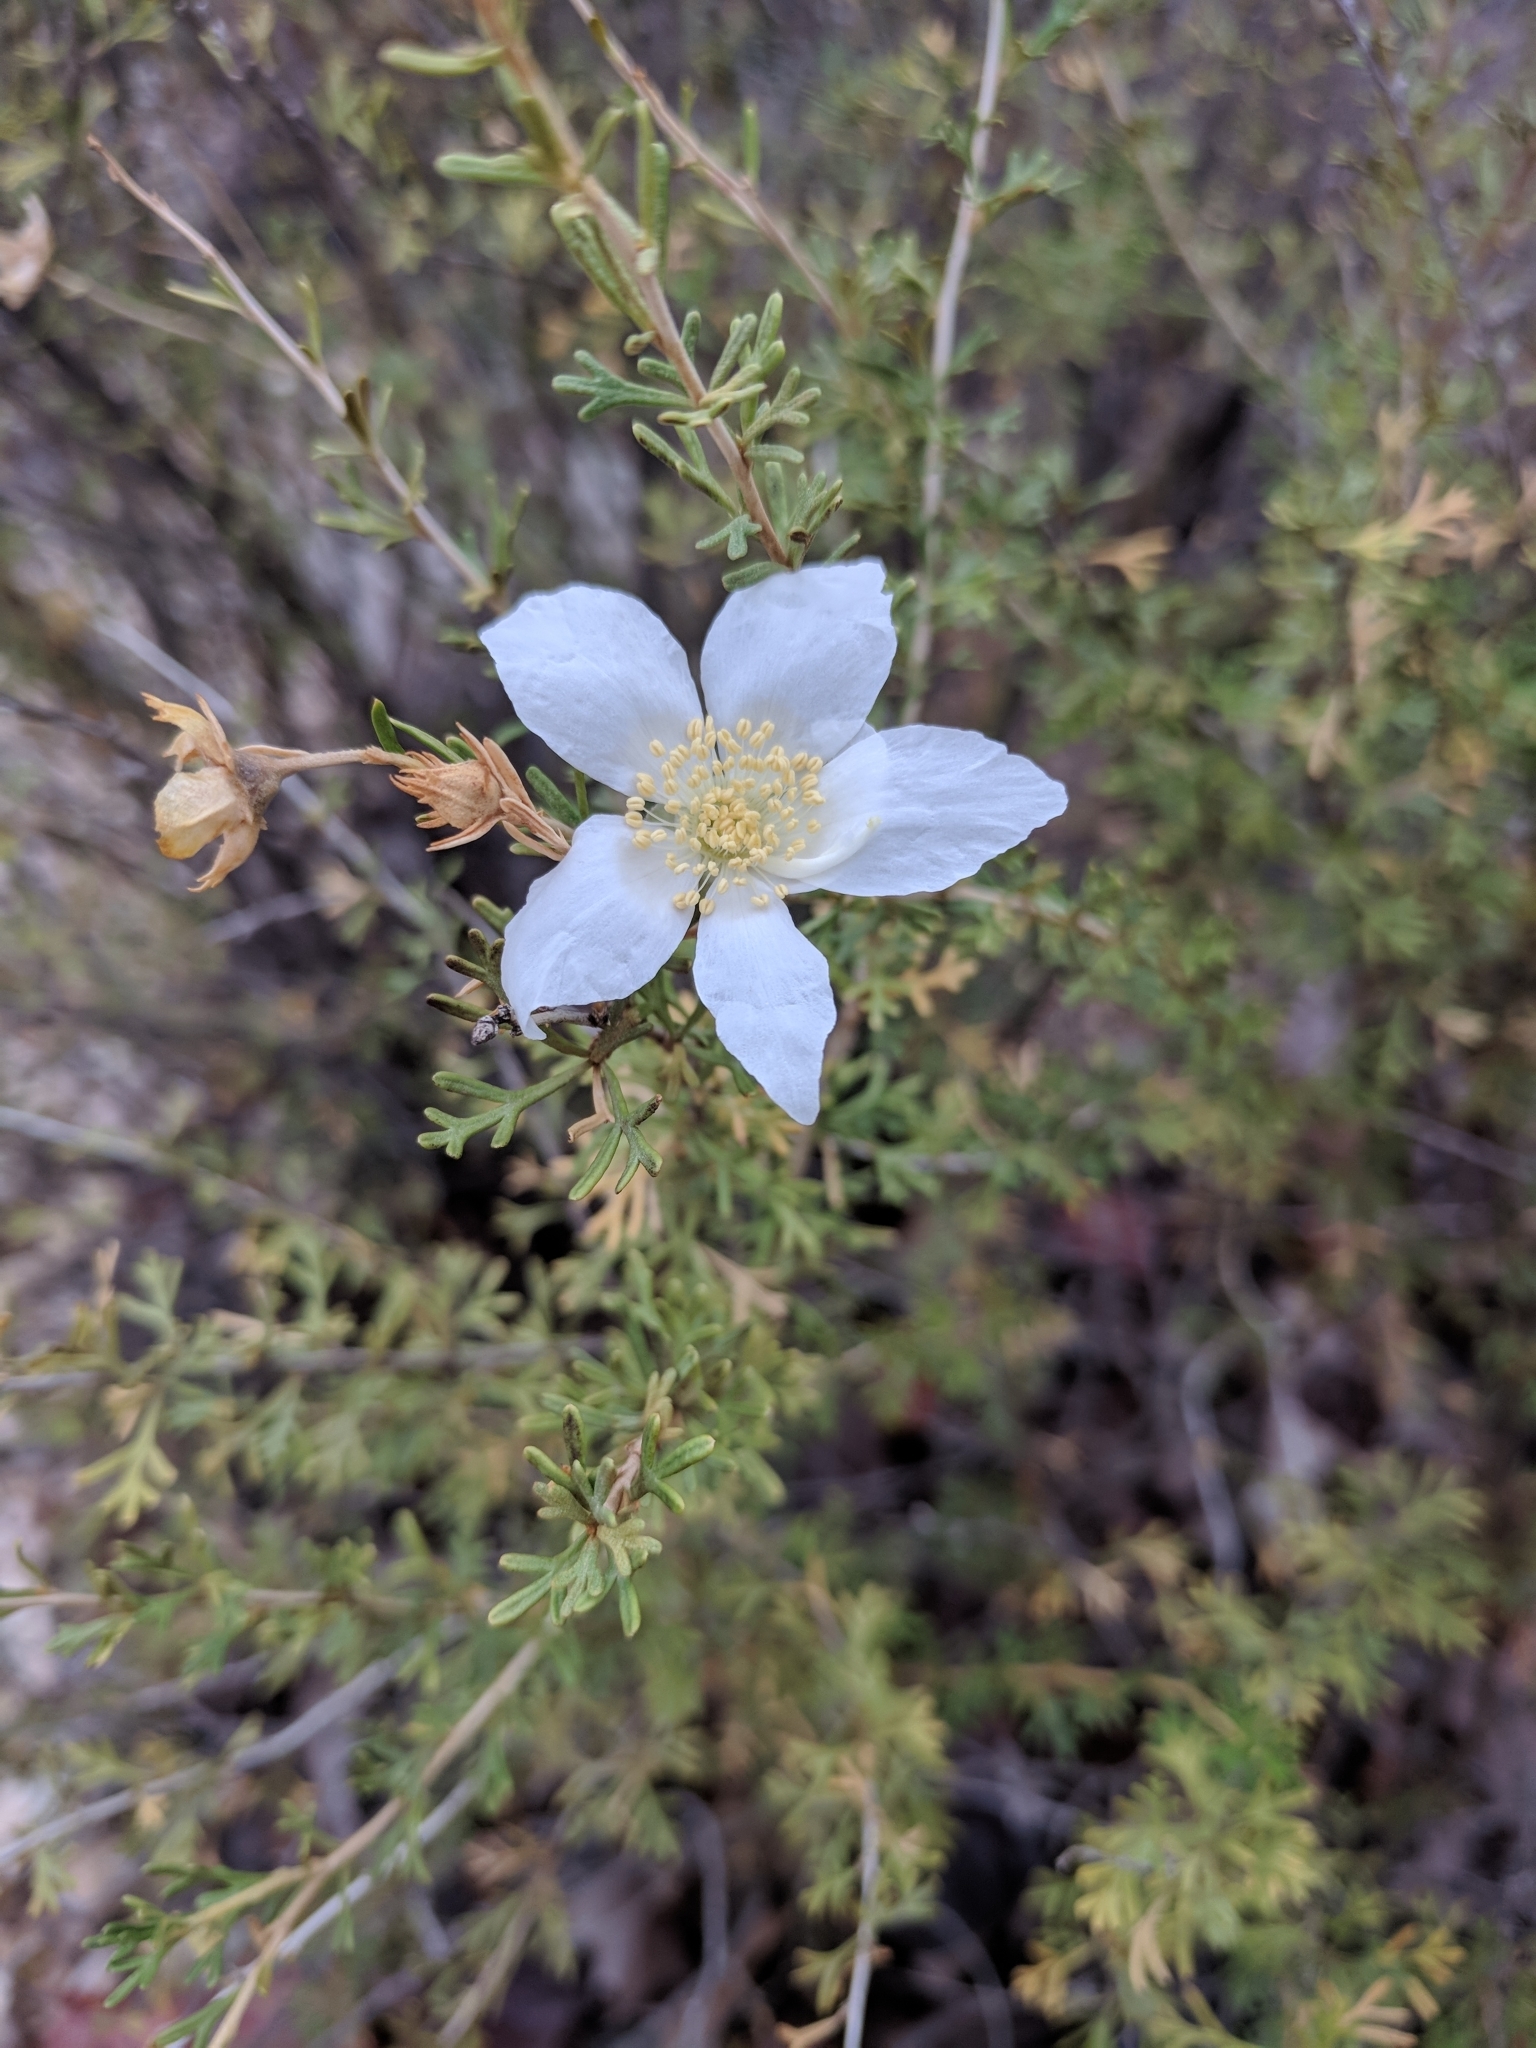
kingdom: Plantae
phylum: Tracheophyta
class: Magnoliopsida
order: Rosales
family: Rosaceae
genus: Fallugia
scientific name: Fallugia paradoxa
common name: Apache-plume
